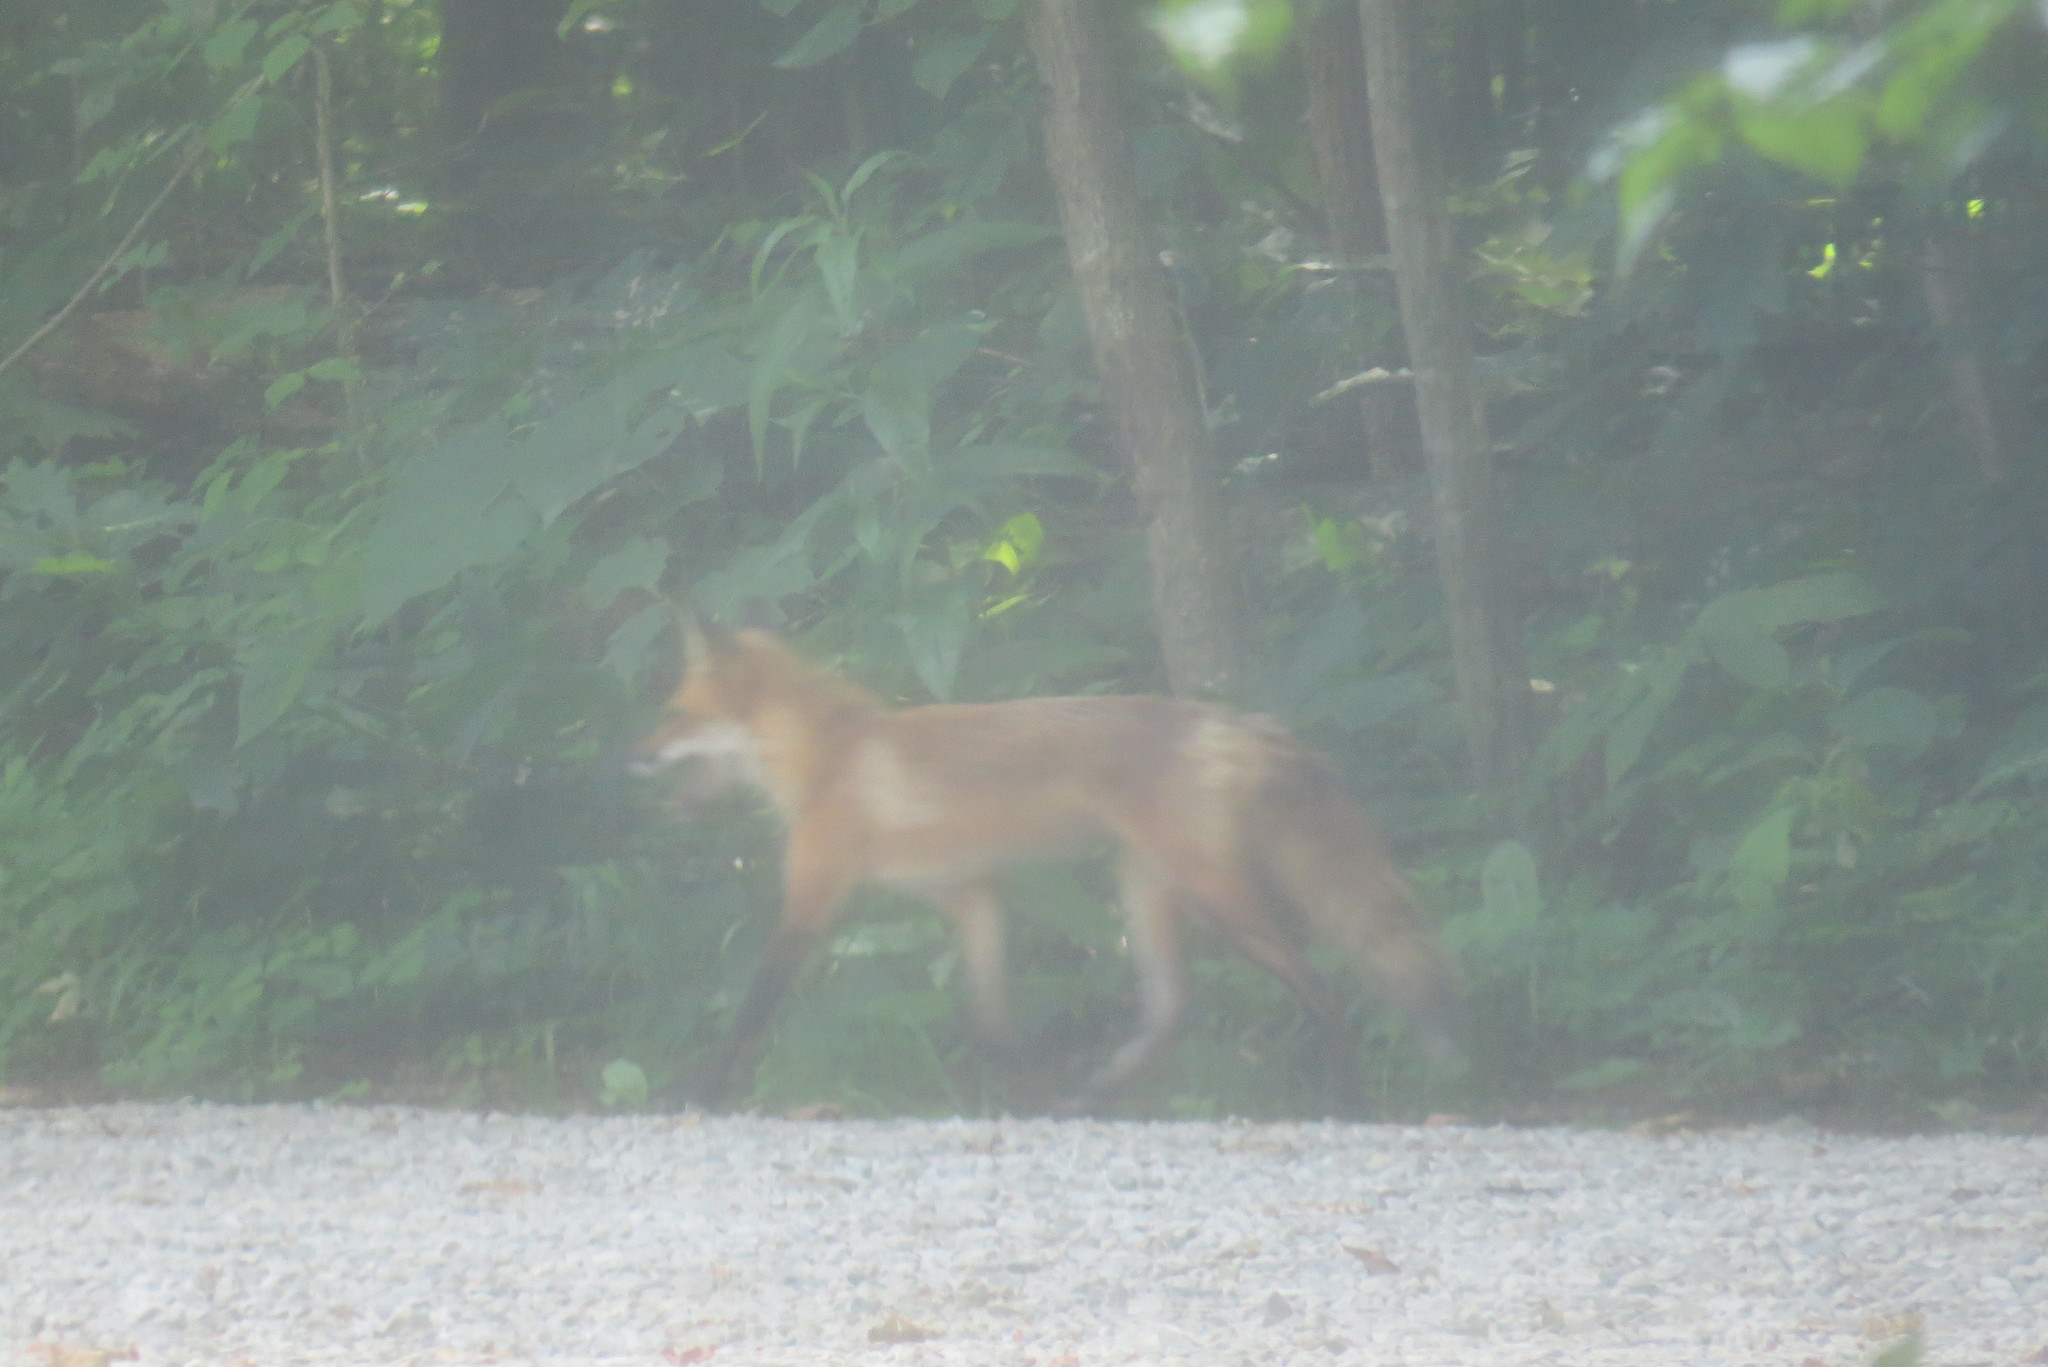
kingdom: Animalia
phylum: Chordata
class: Mammalia
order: Carnivora
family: Canidae
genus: Vulpes
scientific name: Vulpes vulpes
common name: Red fox
